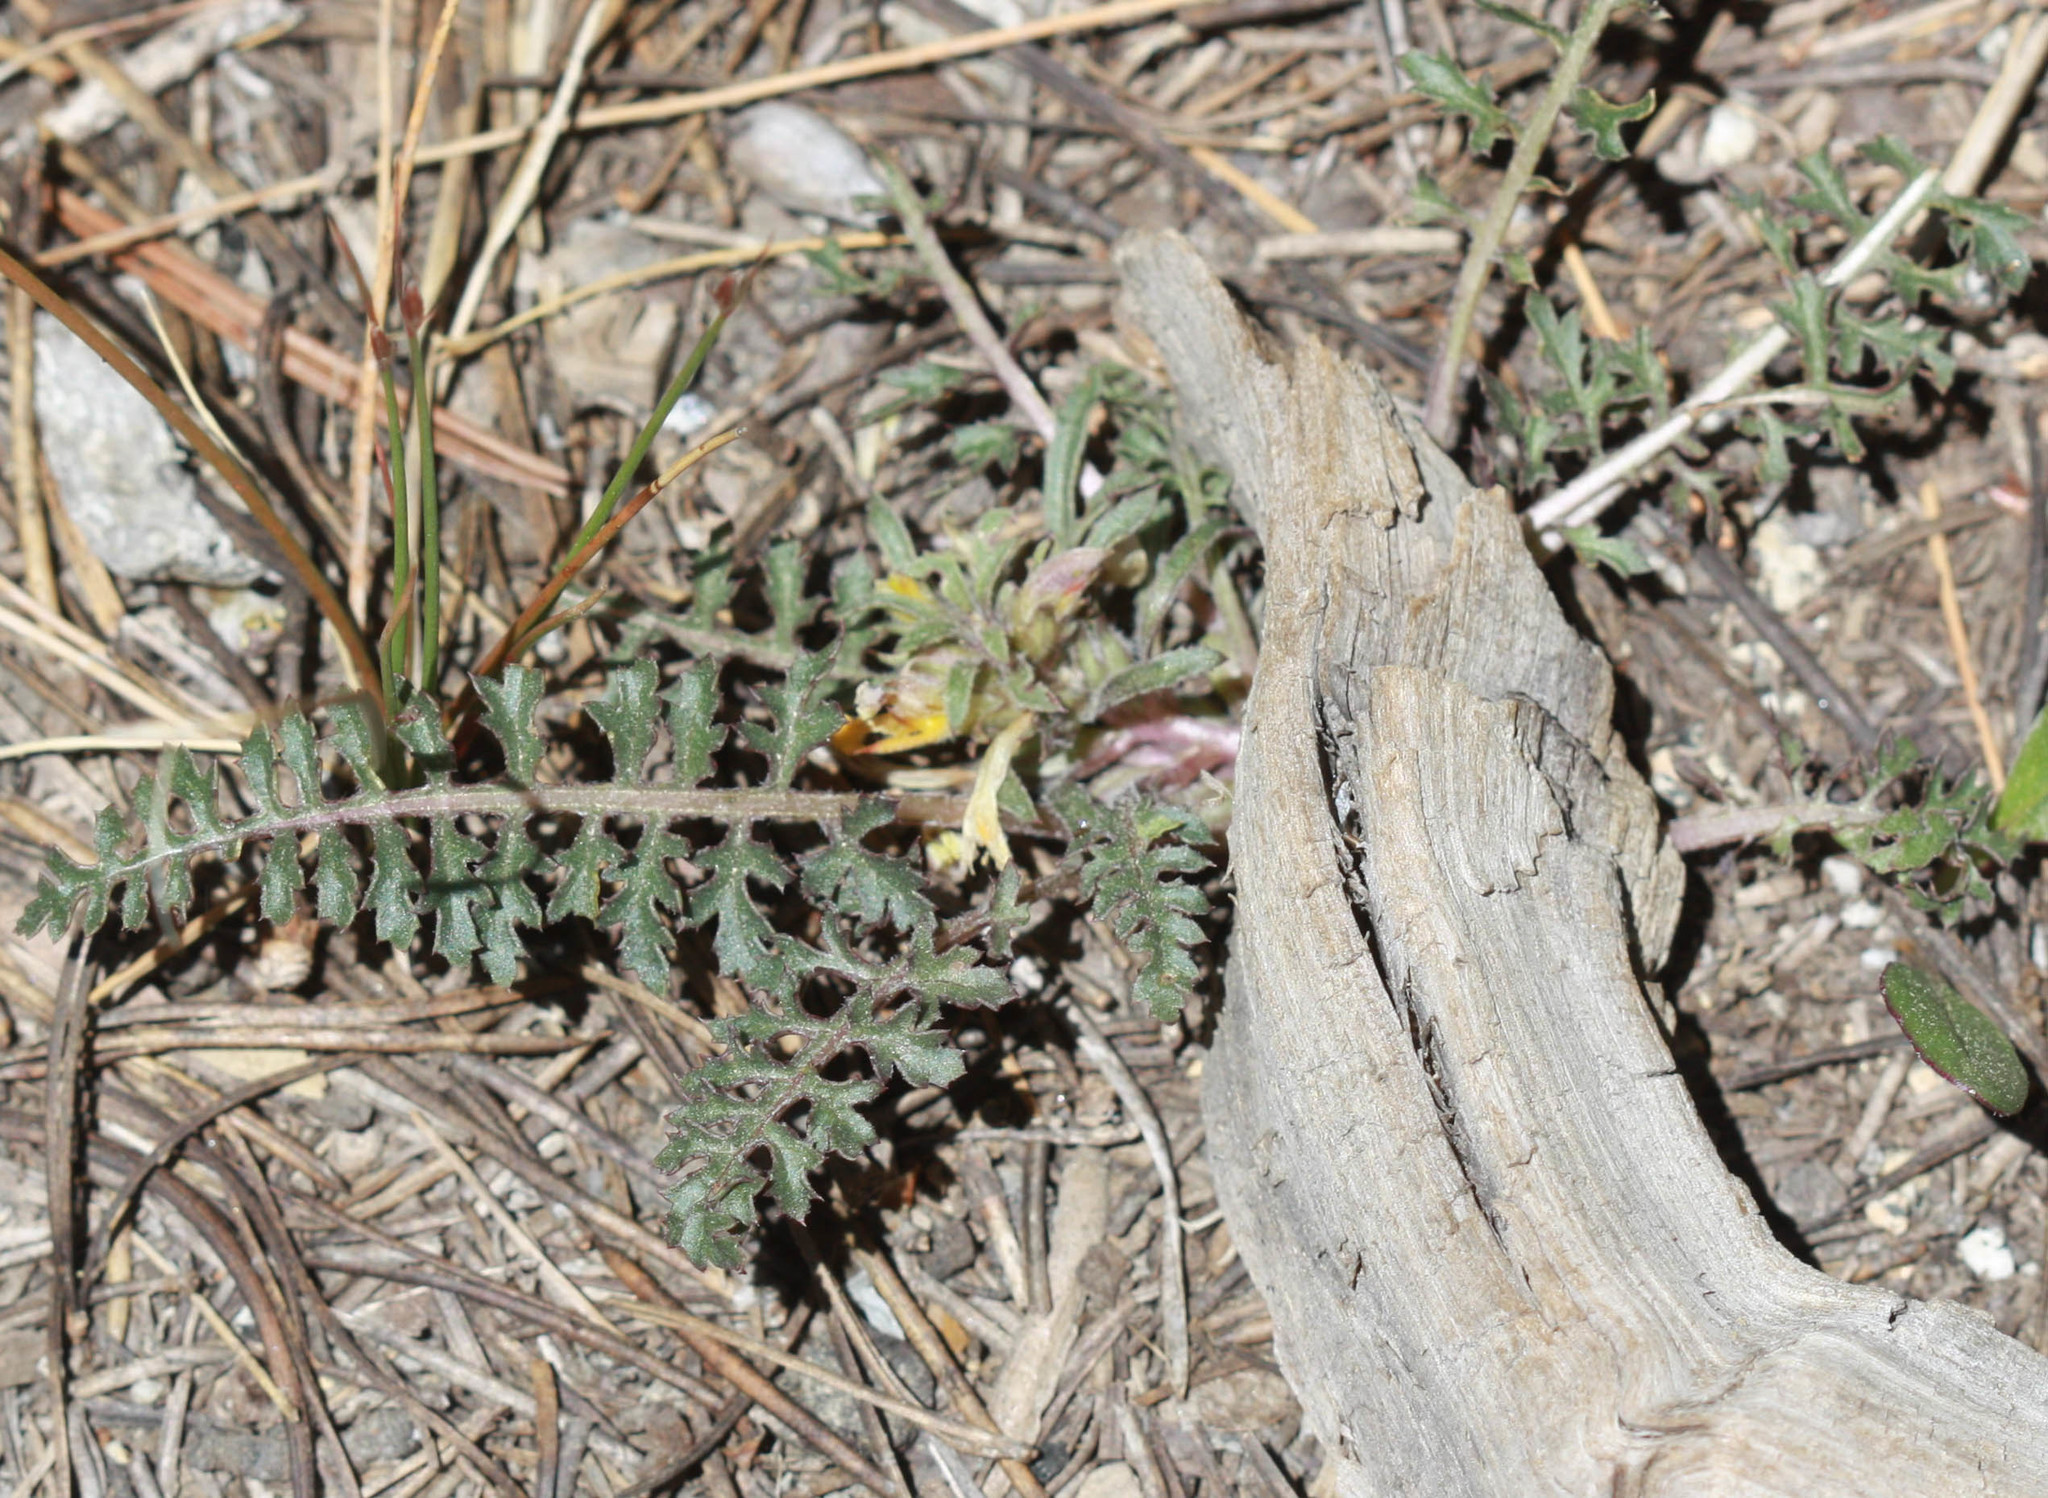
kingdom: Plantae
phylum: Tracheophyta
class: Magnoliopsida
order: Lamiales
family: Orobanchaceae
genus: Pedicularis
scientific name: Pedicularis semibarbata
